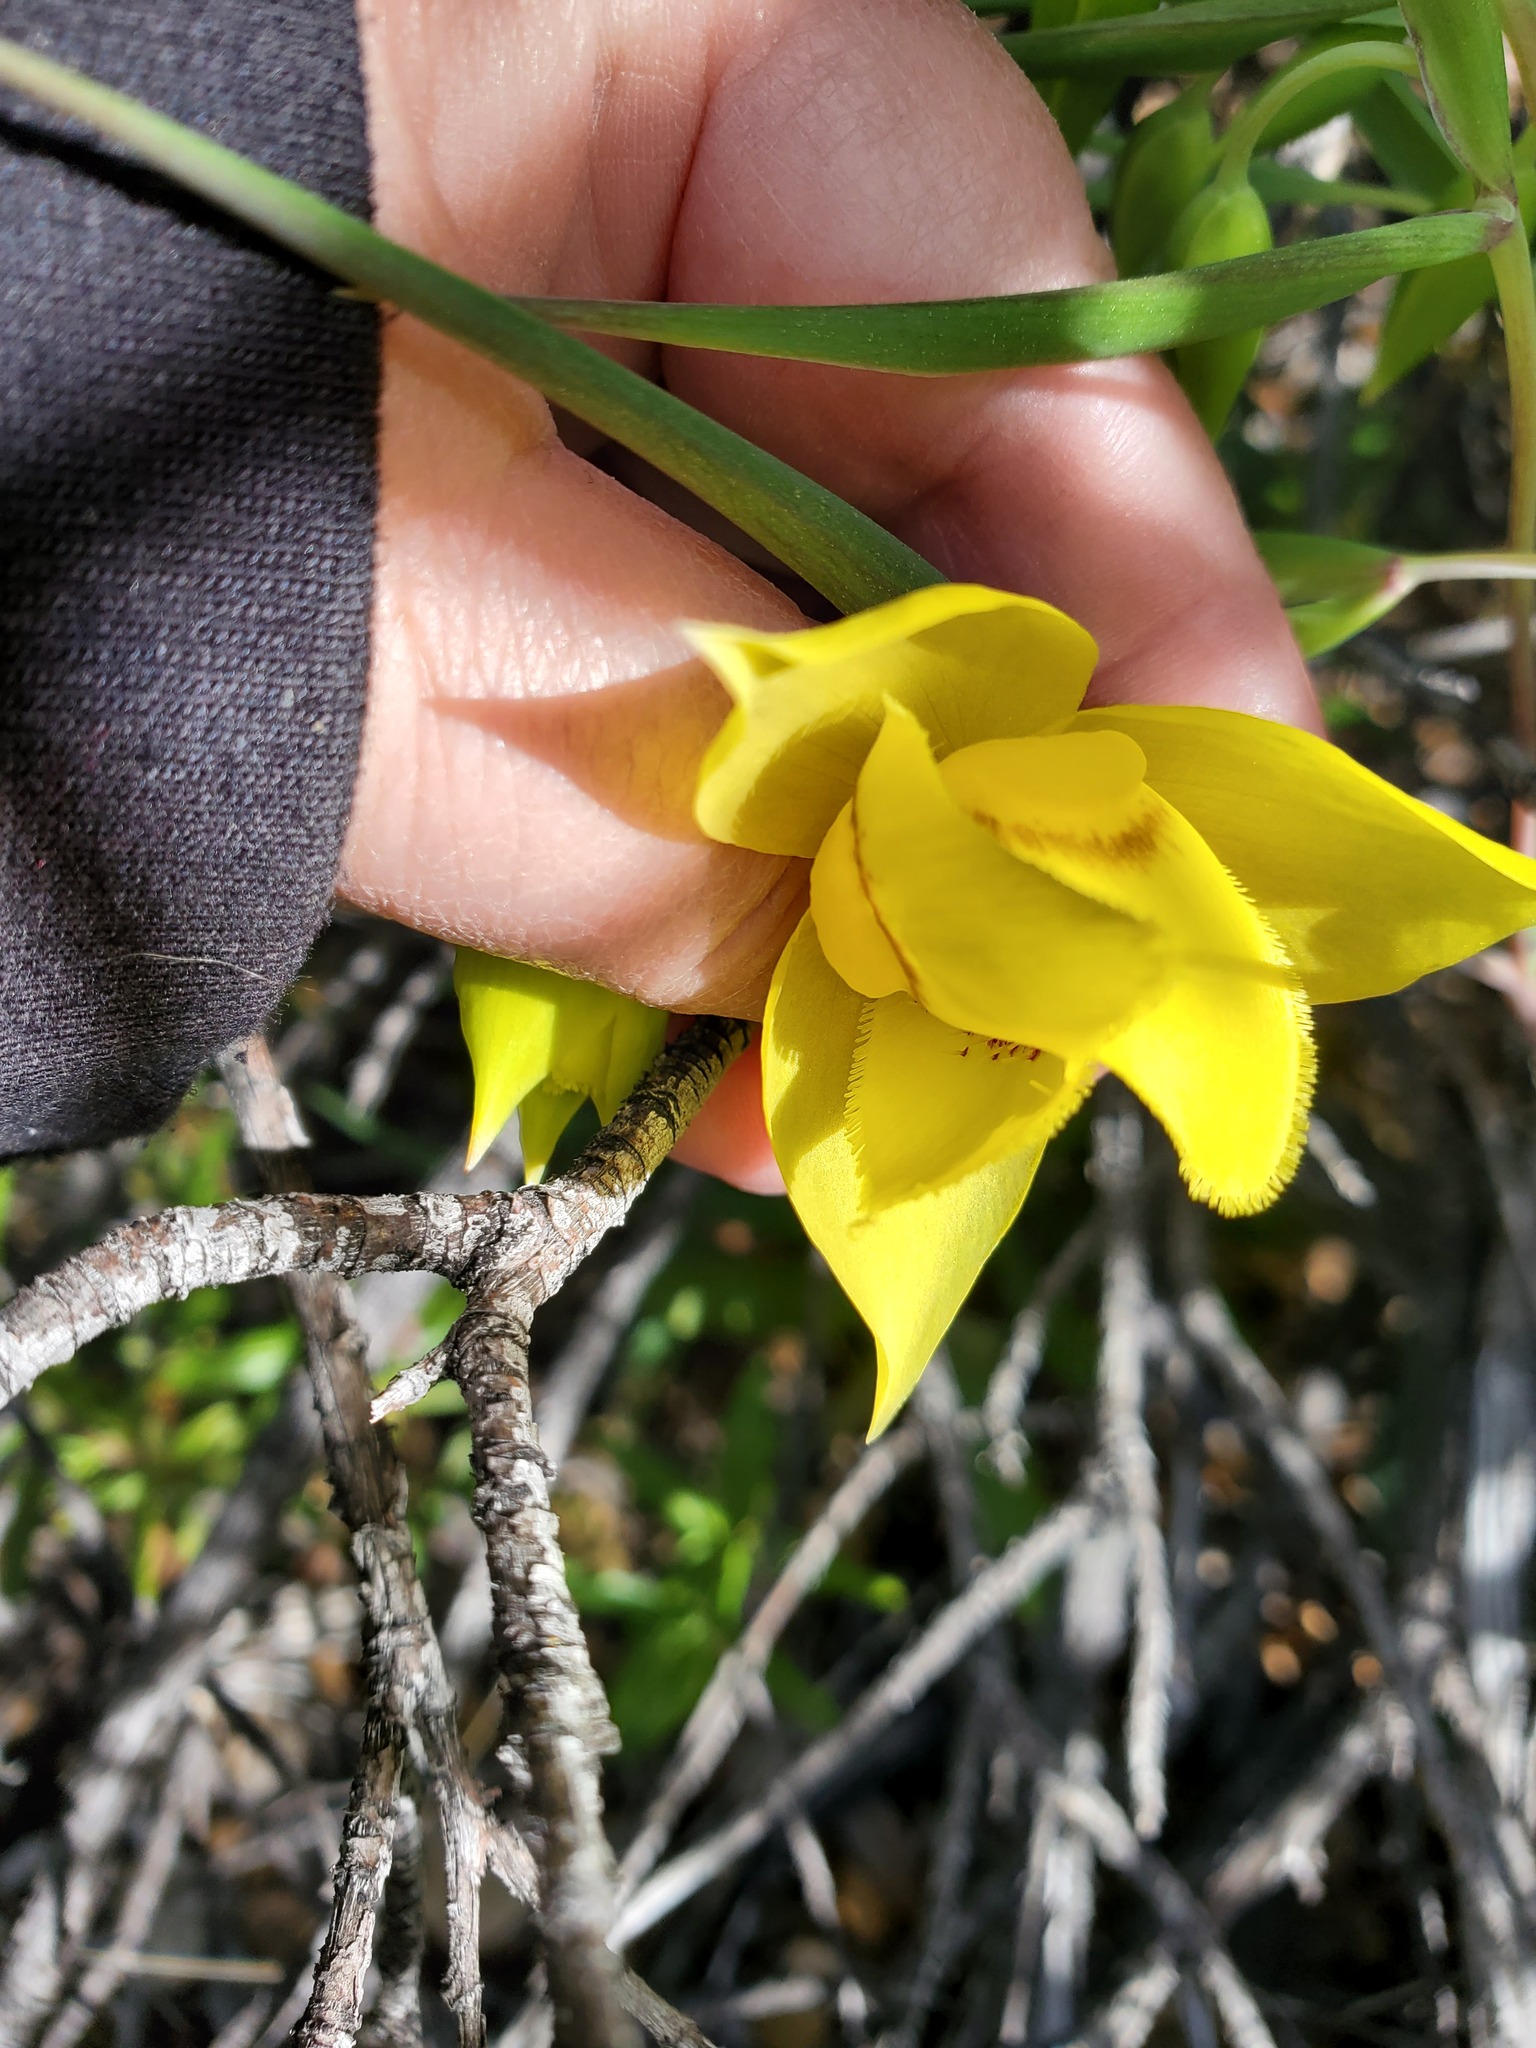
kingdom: Plantae
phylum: Tracheophyta
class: Liliopsida
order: Liliales
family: Liliaceae
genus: Calochortus
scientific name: Calochortus amabilis
